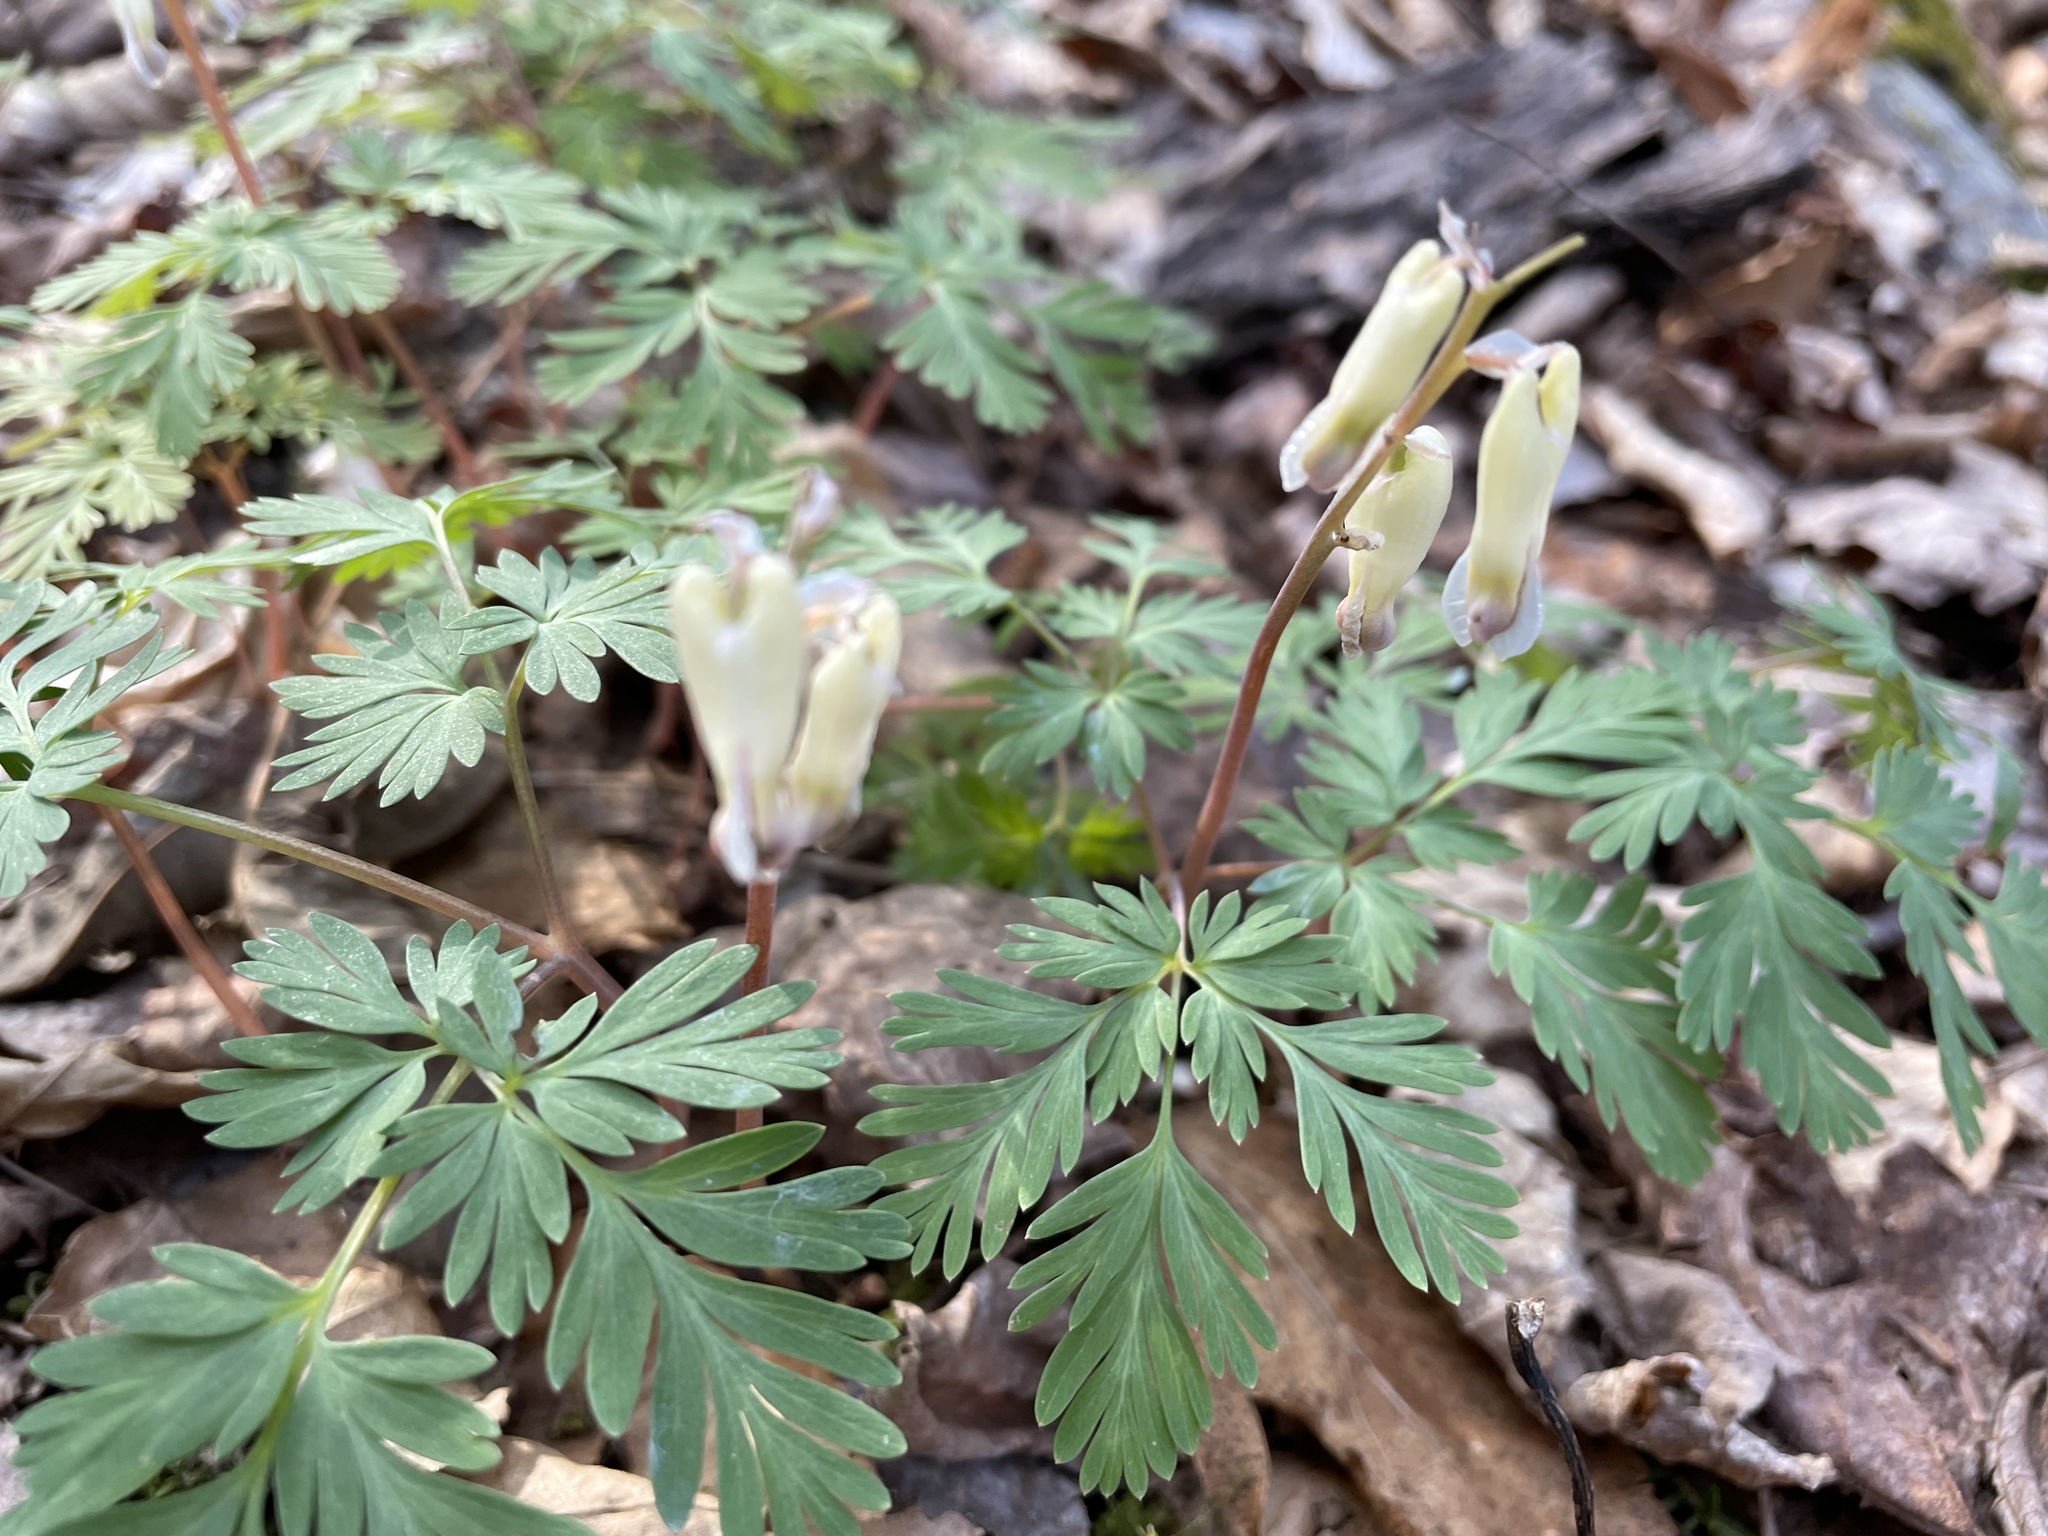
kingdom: Plantae
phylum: Tracheophyta
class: Magnoliopsida
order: Ranunculales
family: Papaveraceae
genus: Dicentra
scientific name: Dicentra canadensis
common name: Squirrel-corn
